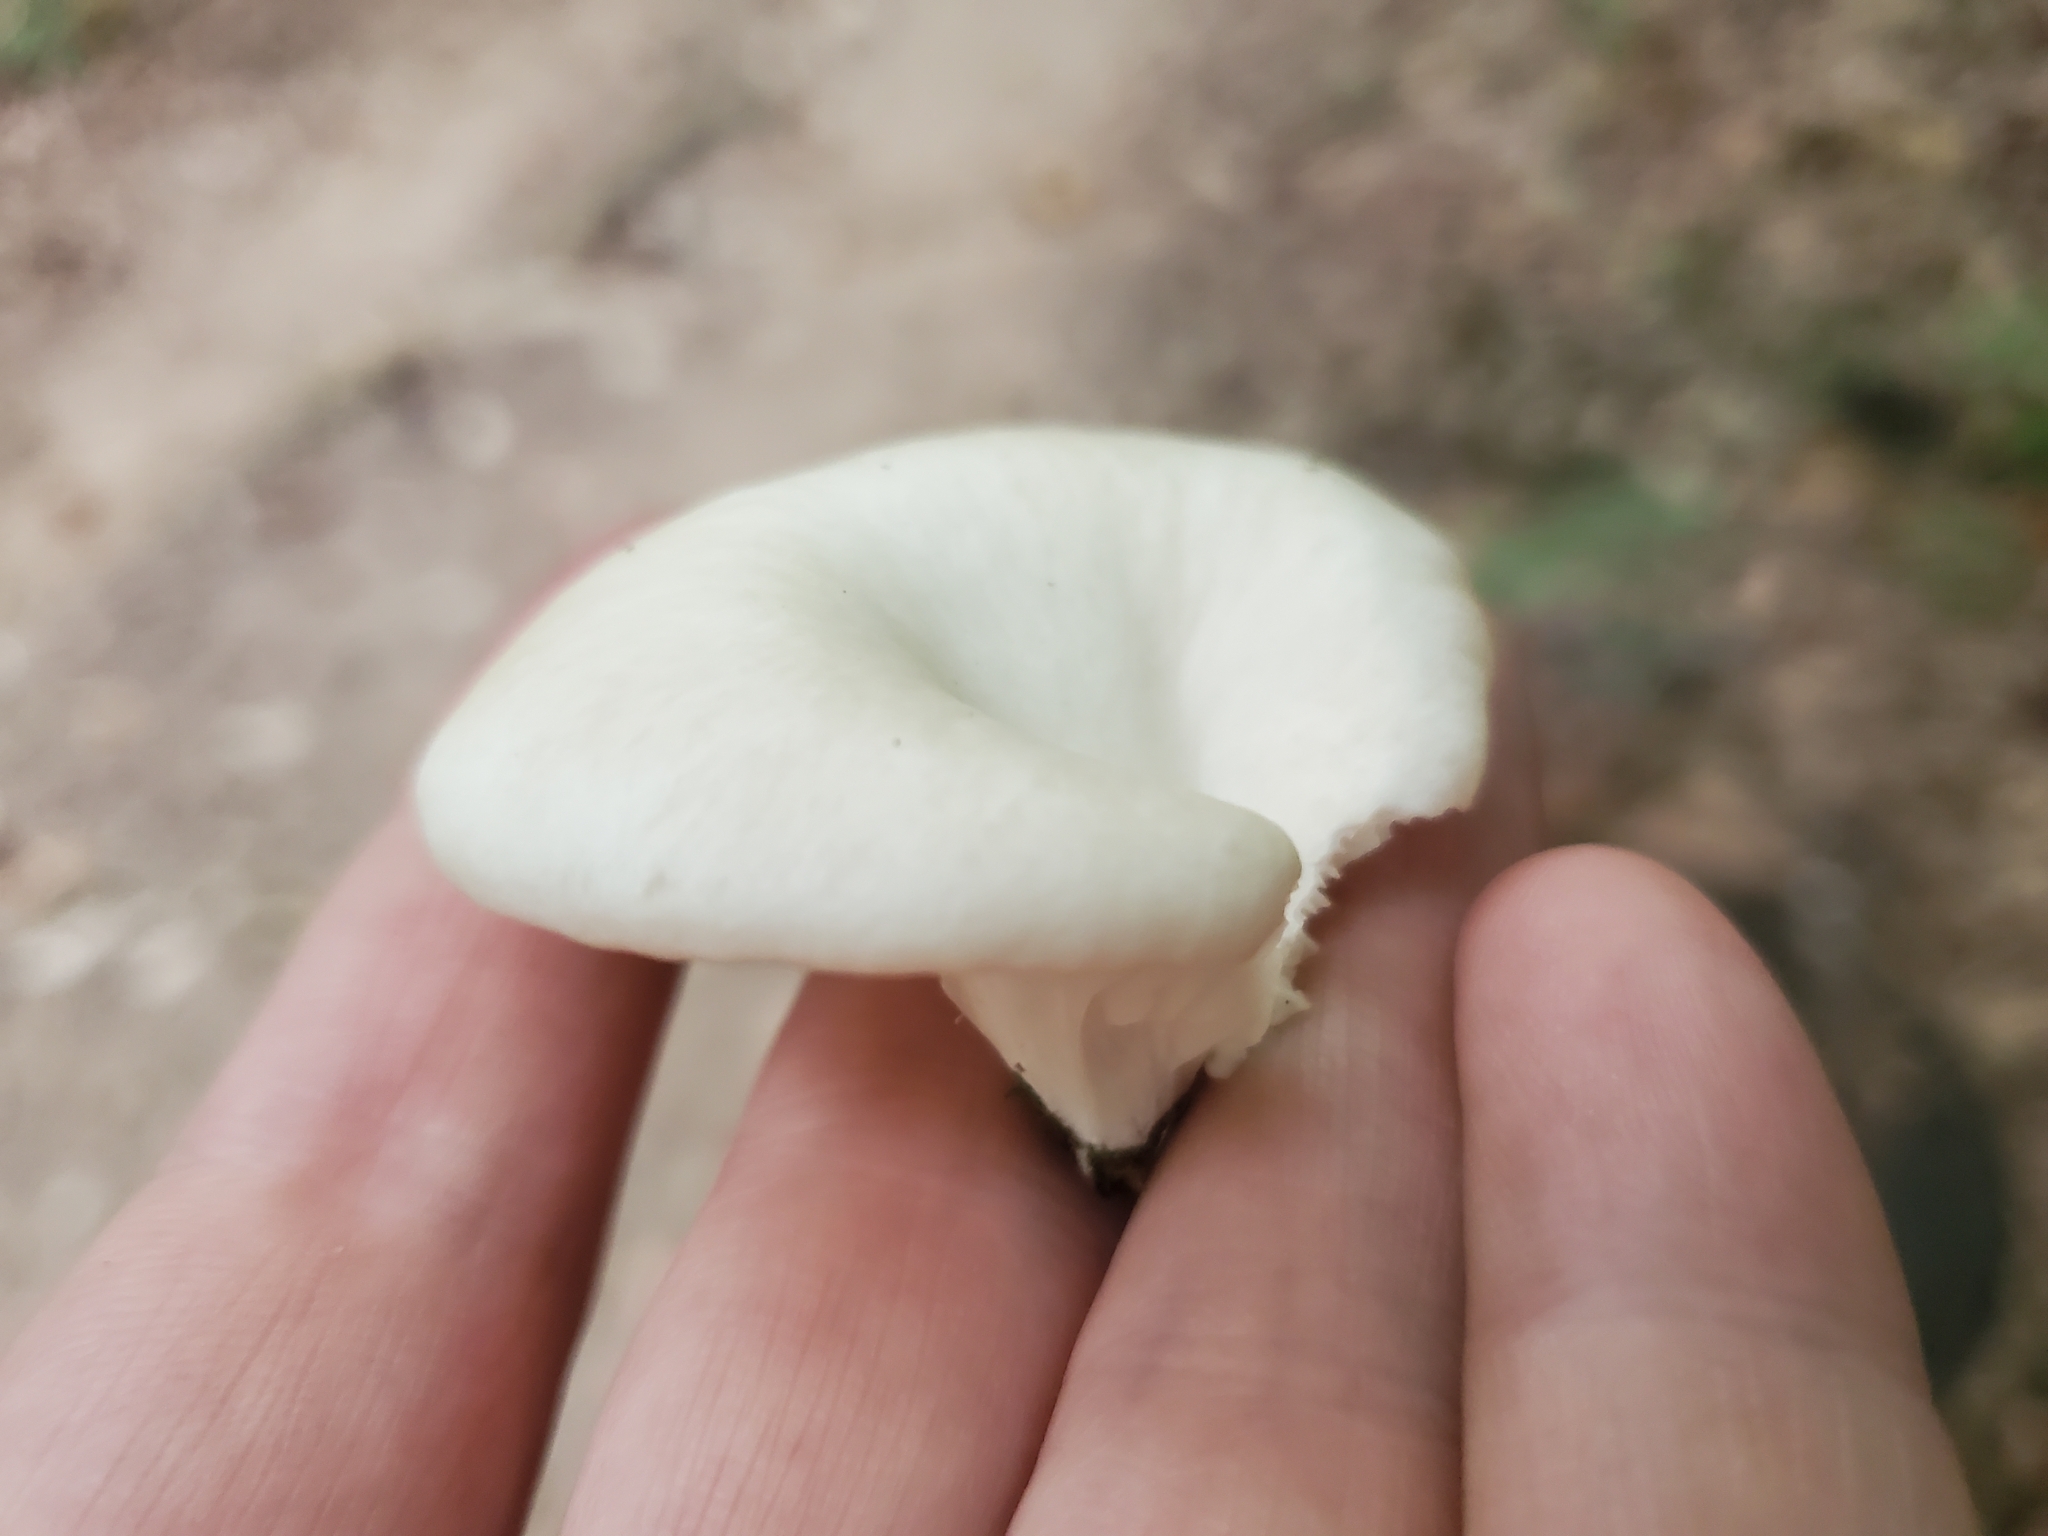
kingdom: Fungi
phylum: Basidiomycota
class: Agaricomycetes
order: Agaricales
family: Pleurotaceae
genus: Pleurotus
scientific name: Pleurotus pulmonarius
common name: Pale oyster
